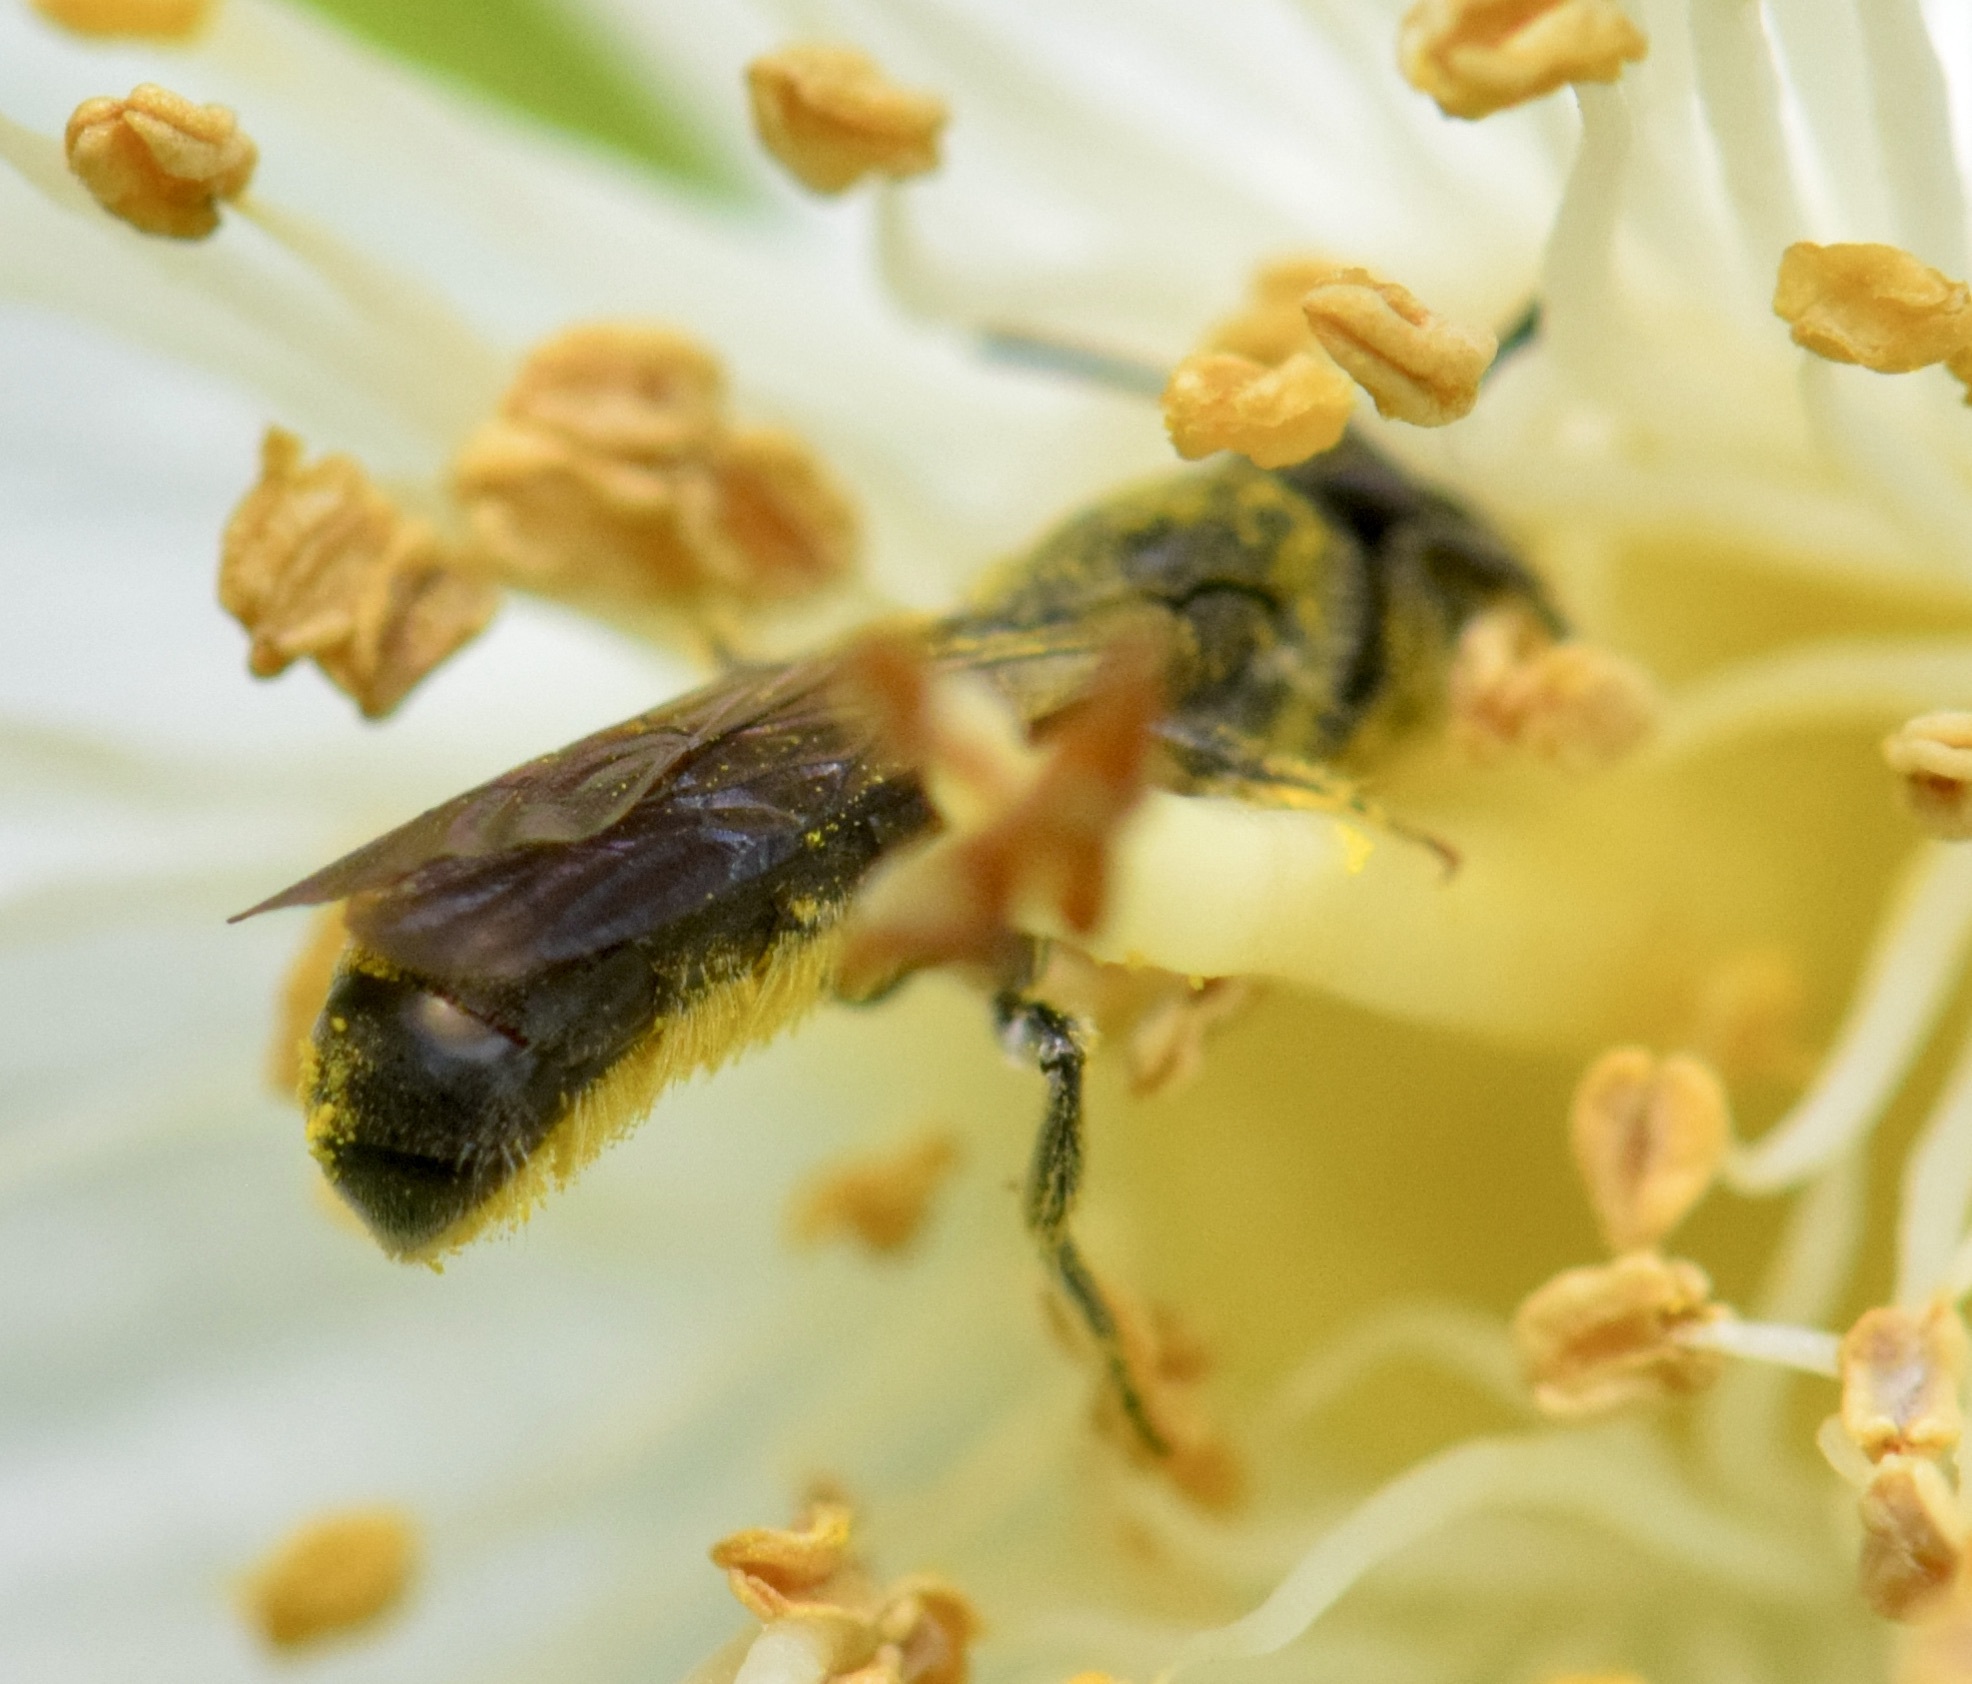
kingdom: Animalia
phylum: Arthropoda
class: Insecta
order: Hymenoptera
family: Megachilidae
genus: Chelostoma
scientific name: Chelostoma philadelphi
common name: Mock-orange scissor bee
